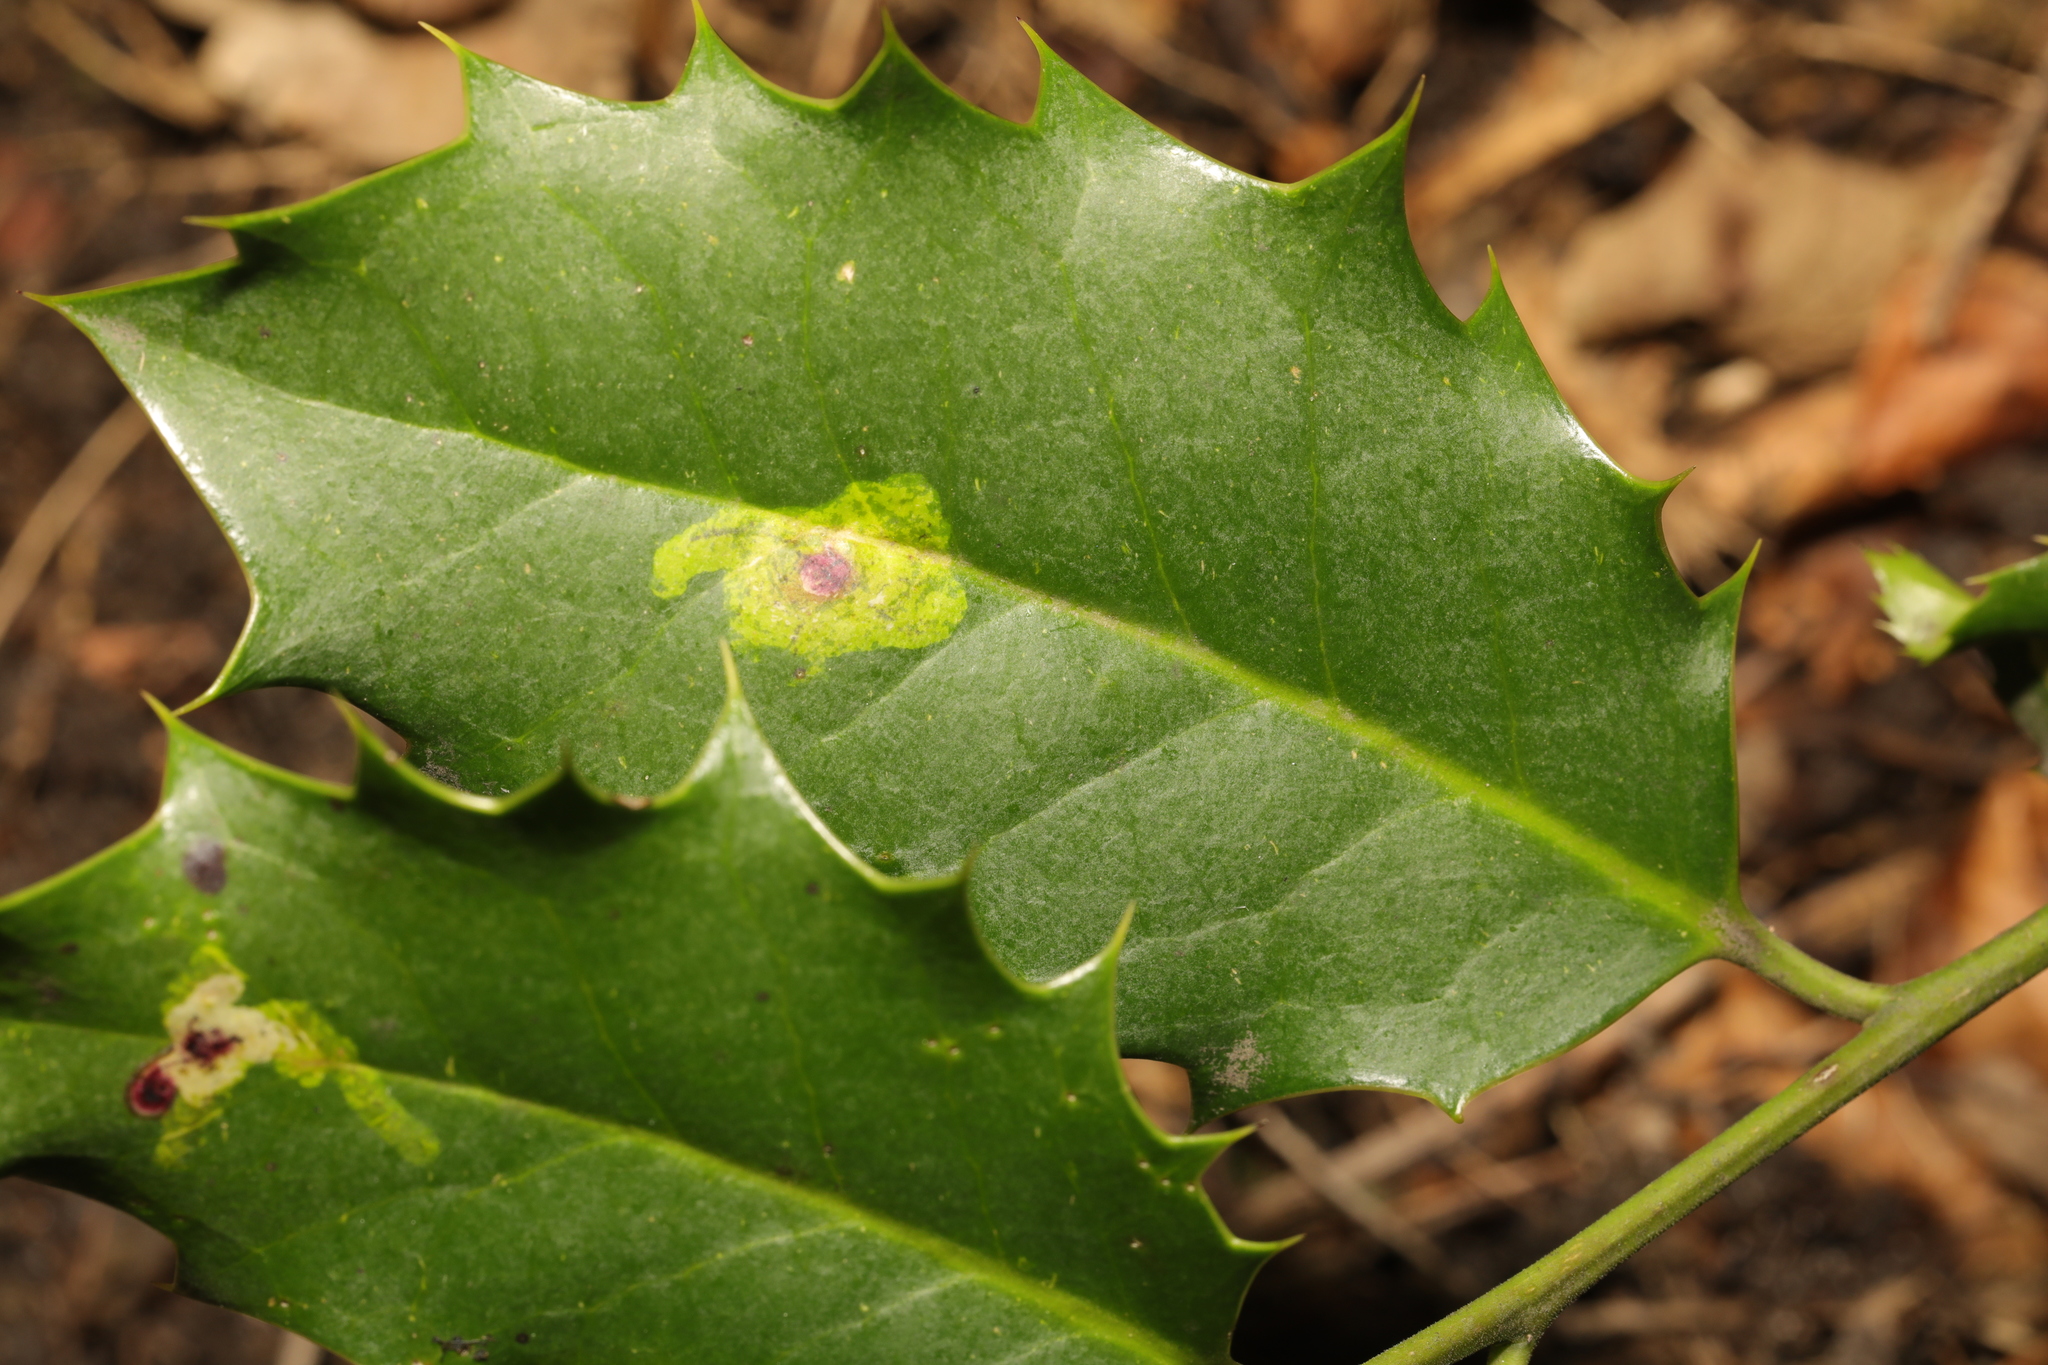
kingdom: Animalia
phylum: Arthropoda
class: Insecta
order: Diptera
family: Agromyzidae
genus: Phytomyza
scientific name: Phytomyza ilicis
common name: Holly leafminer
